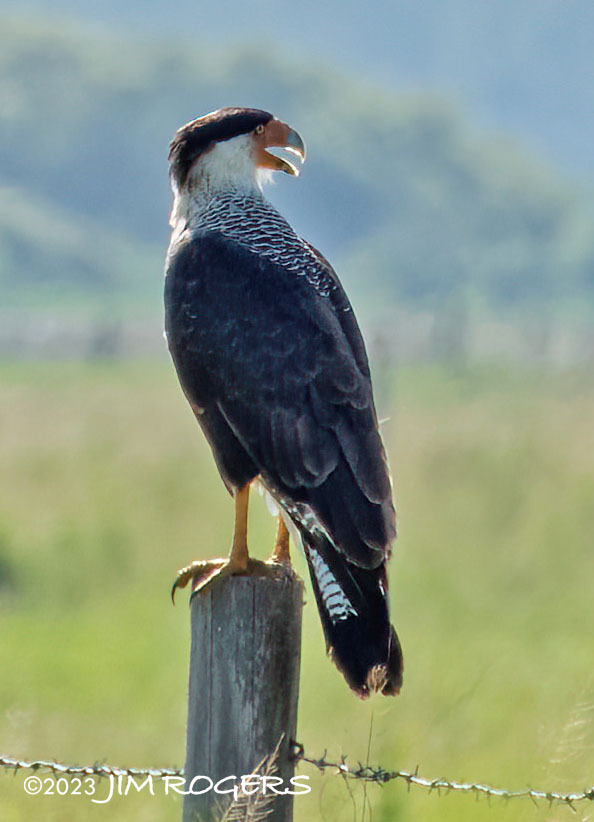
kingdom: Animalia
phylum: Chordata
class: Aves
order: Falconiformes
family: Falconidae
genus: Caracara
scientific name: Caracara plancus
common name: Southern caracara
